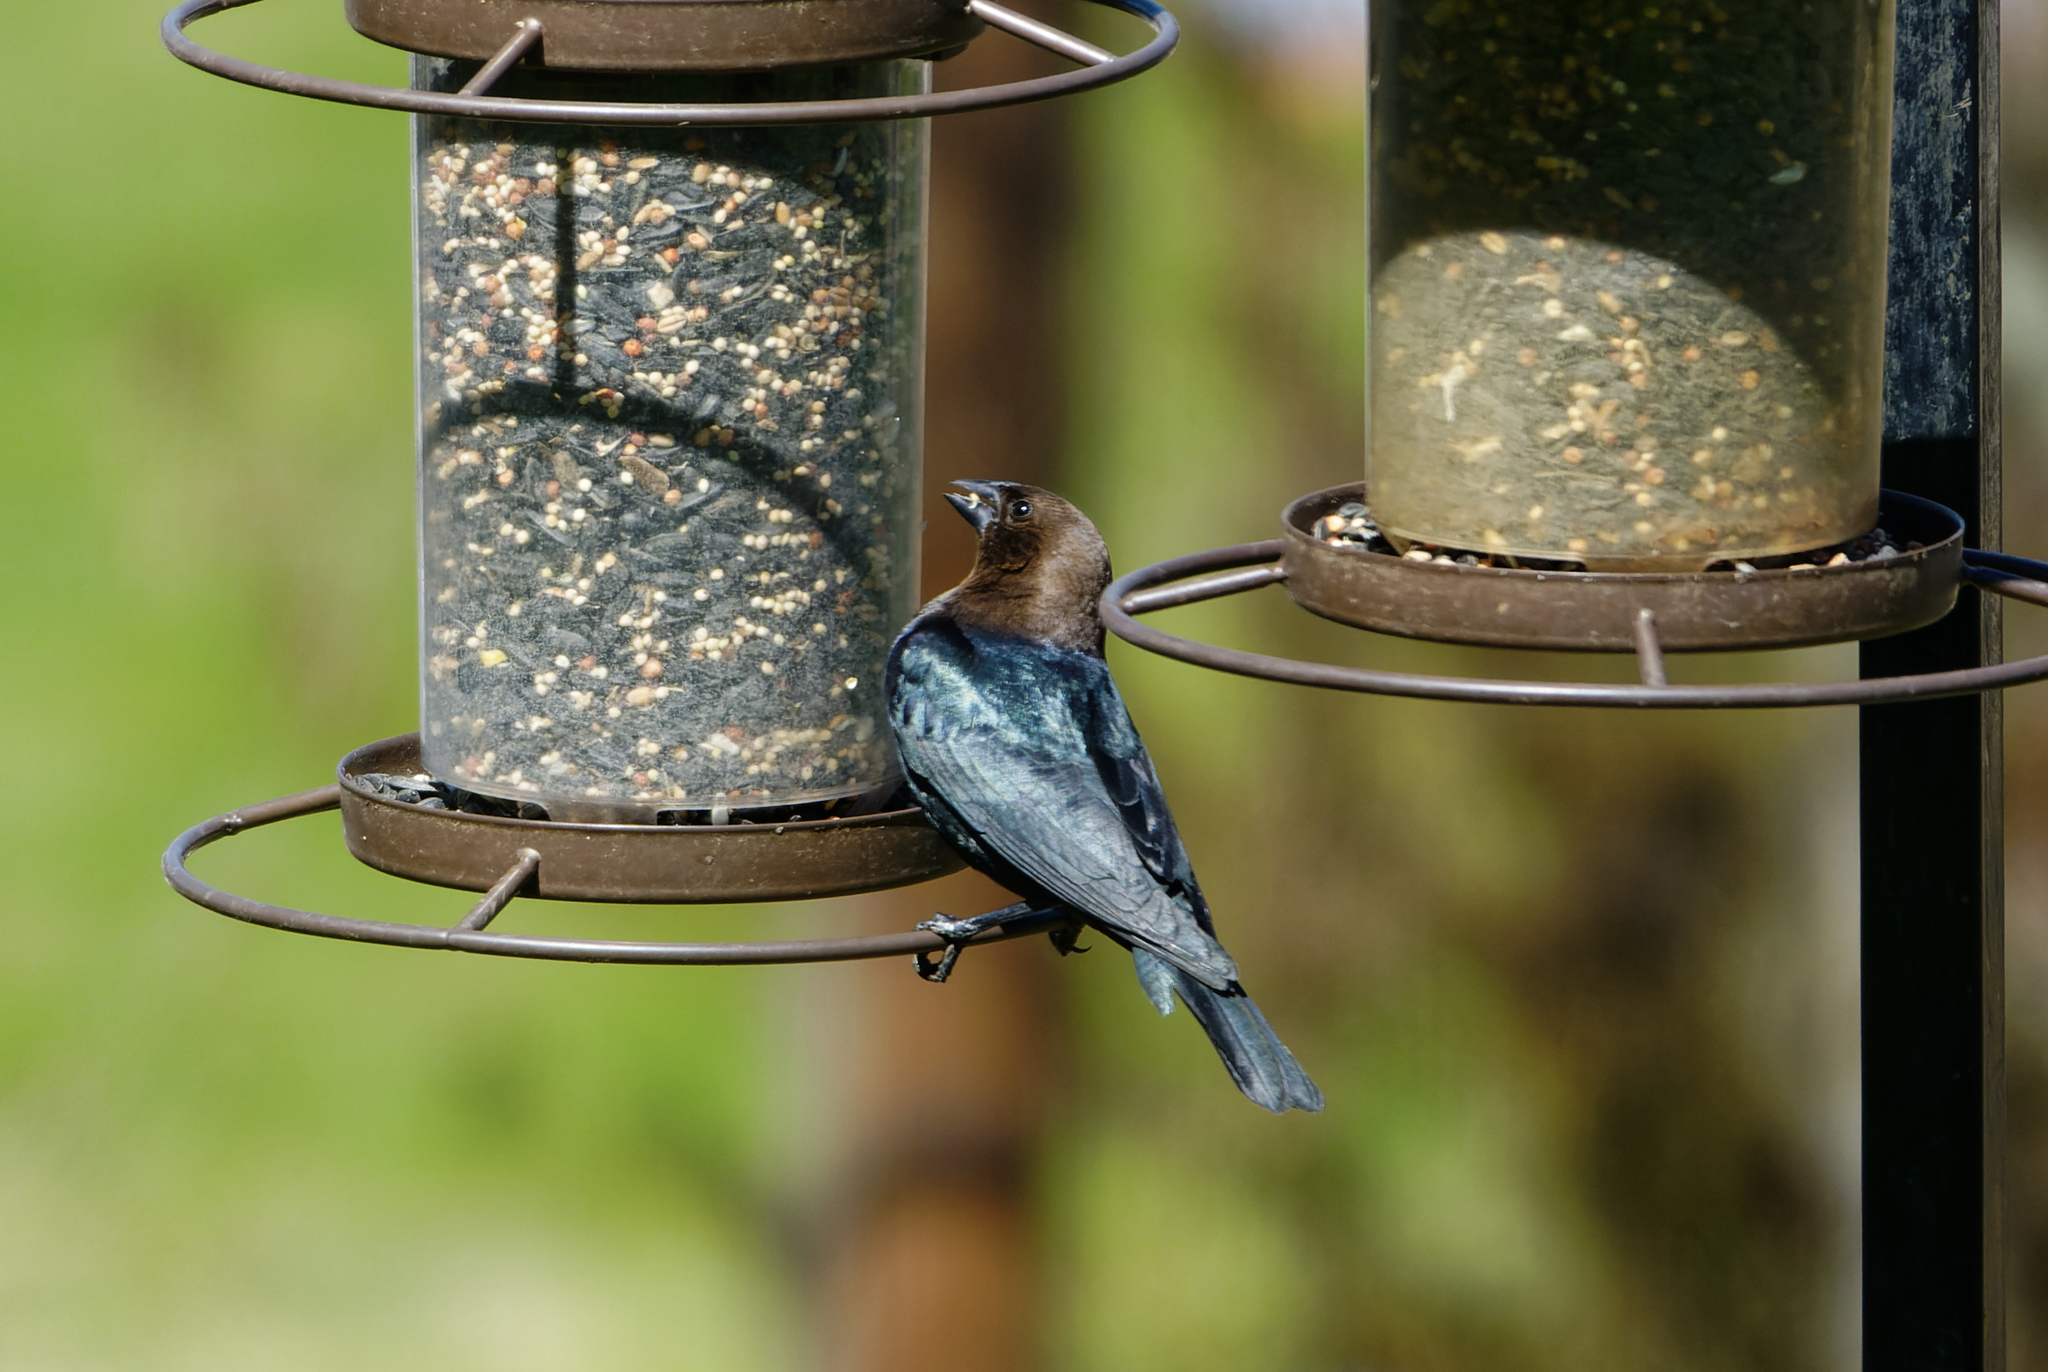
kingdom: Animalia
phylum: Chordata
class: Aves
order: Passeriformes
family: Icteridae
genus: Molothrus
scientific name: Molothrus ater
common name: Brown-headed cowbird
